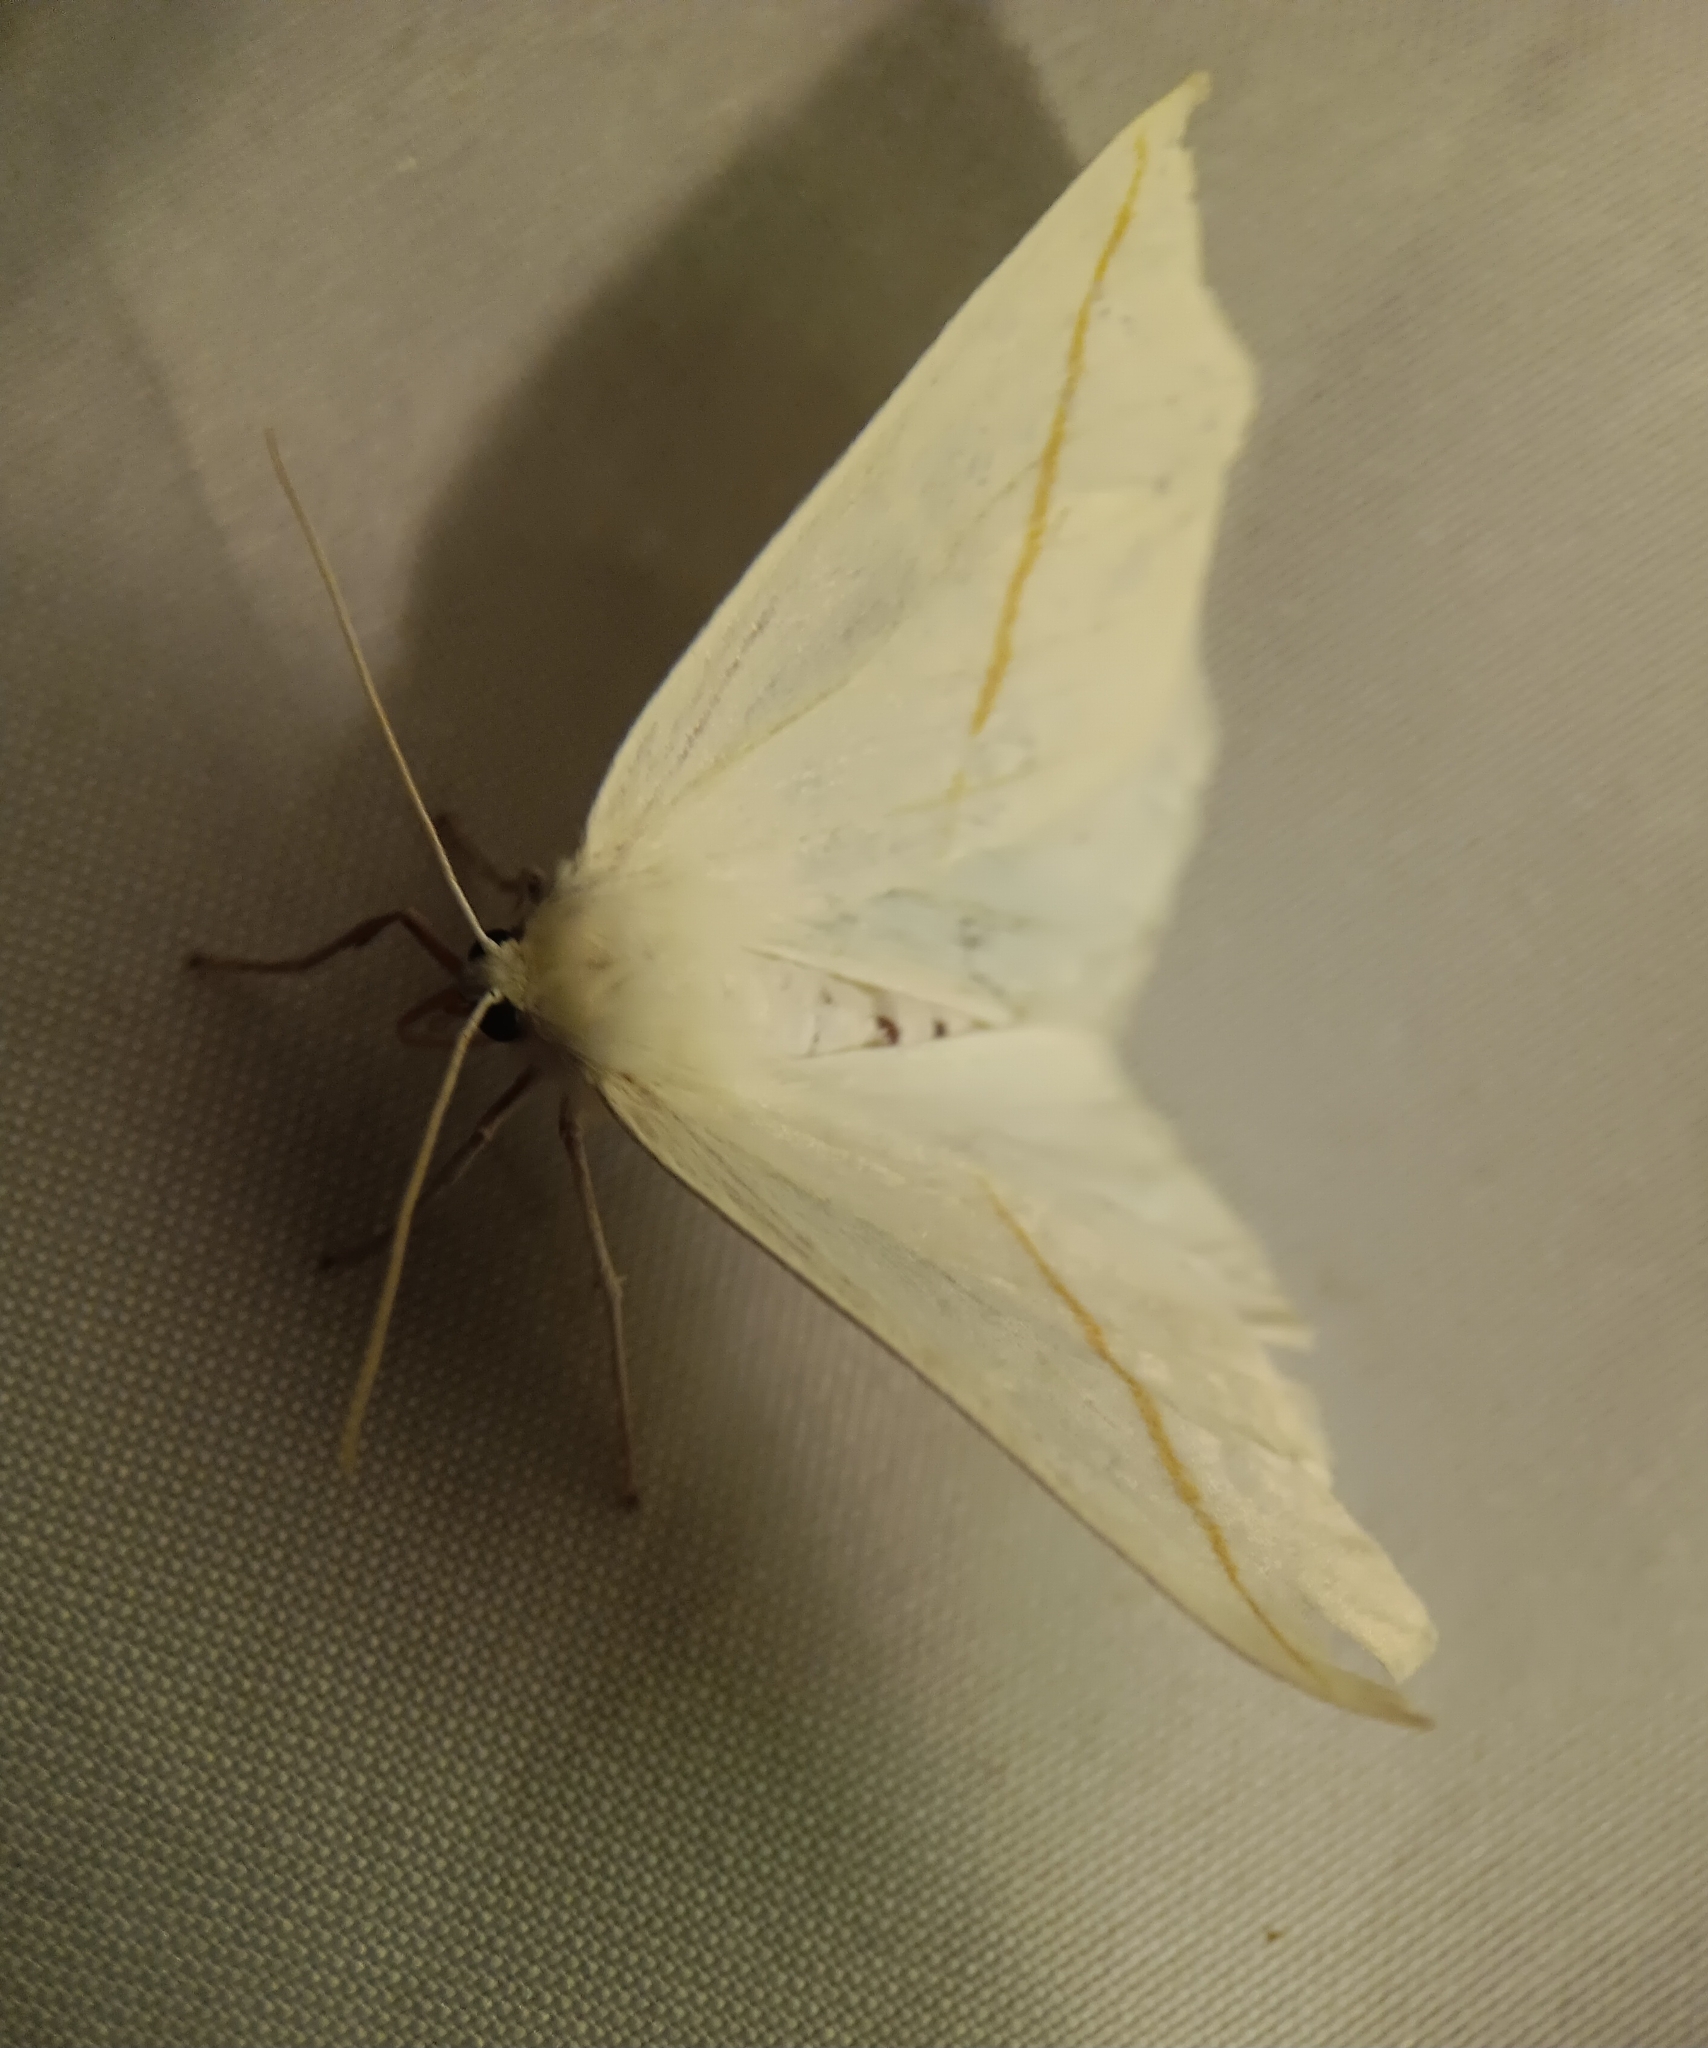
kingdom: Animalia
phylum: Arthropoda
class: Insecta
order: Lepidoptera
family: Geometridae
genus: Tetracis
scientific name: Tetracis cachexiata
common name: White slant-line
